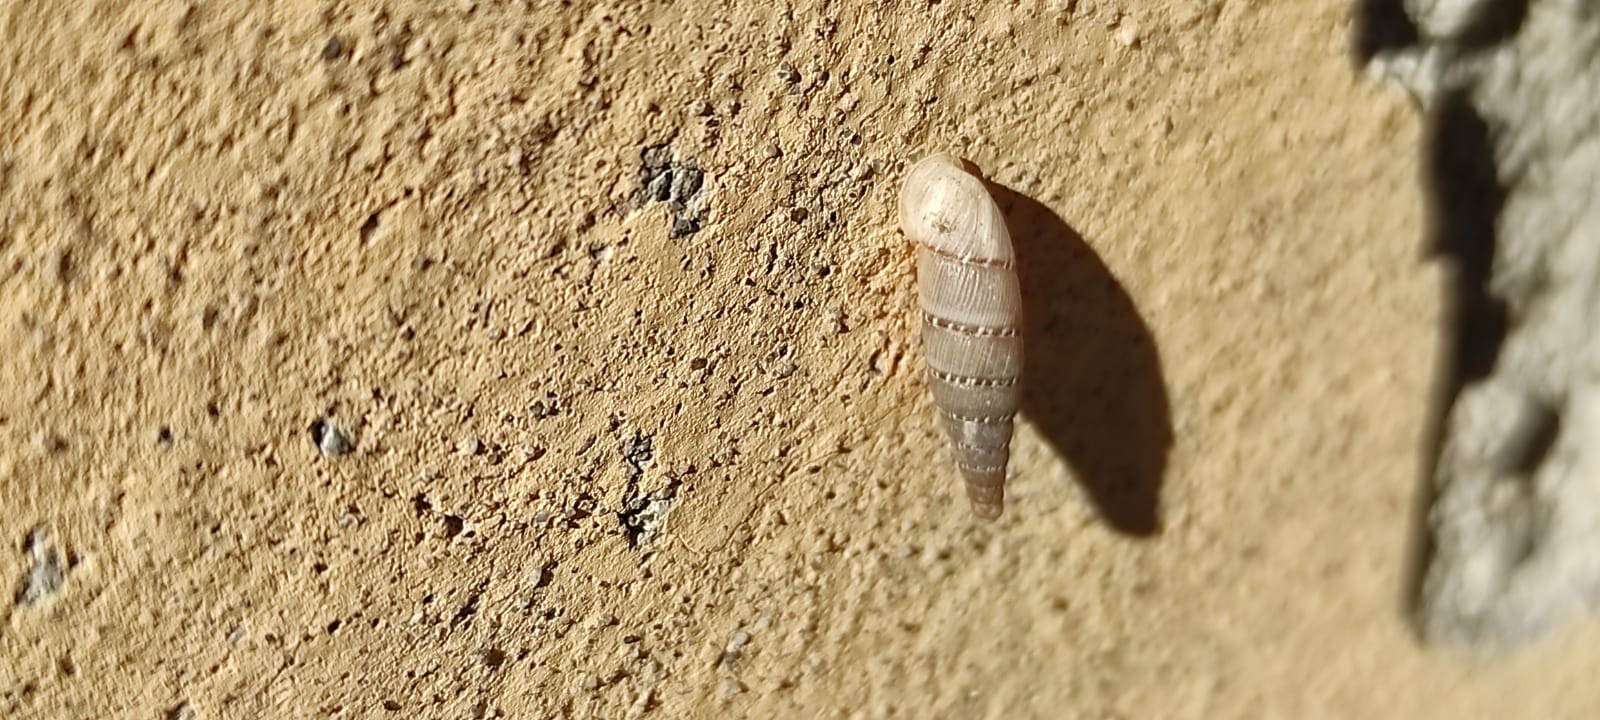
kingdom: Animalia
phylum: Mollusca
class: Gastropoda
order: Stylommatophora
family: Clausiliidae
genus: Papillifera
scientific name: Papillifera papillaris
